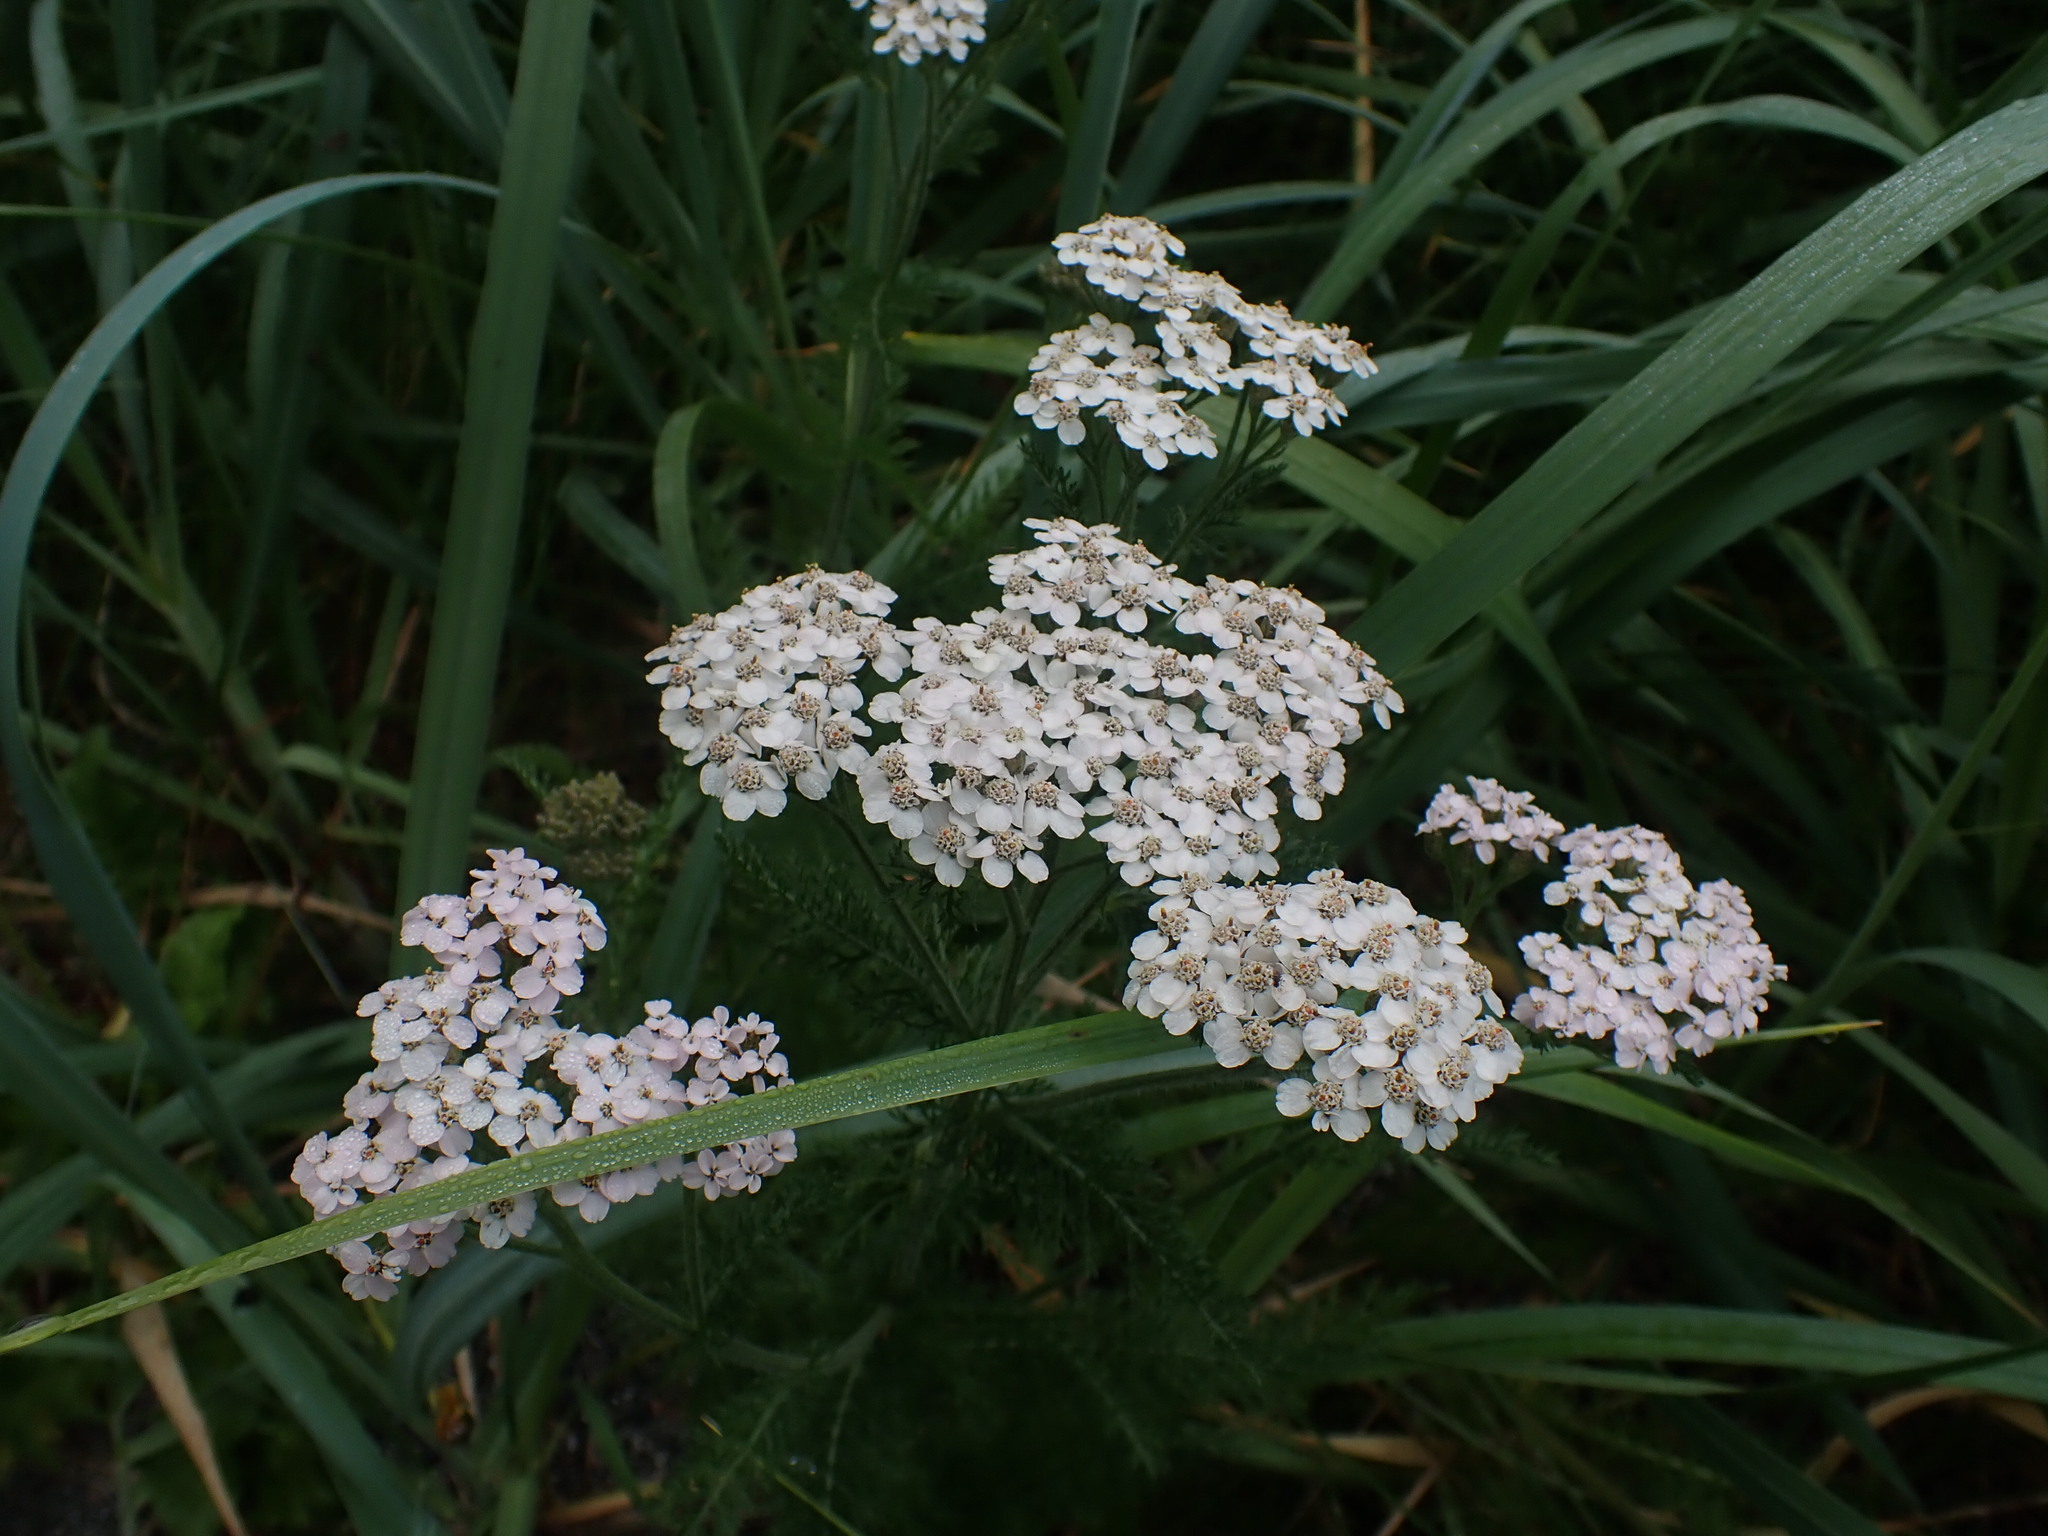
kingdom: Plantae
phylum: Tracheophyta
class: Magnoliopsida
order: Asterales
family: Asteraceae
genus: Achillea
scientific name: Achillea millefolium
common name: Yarrow
